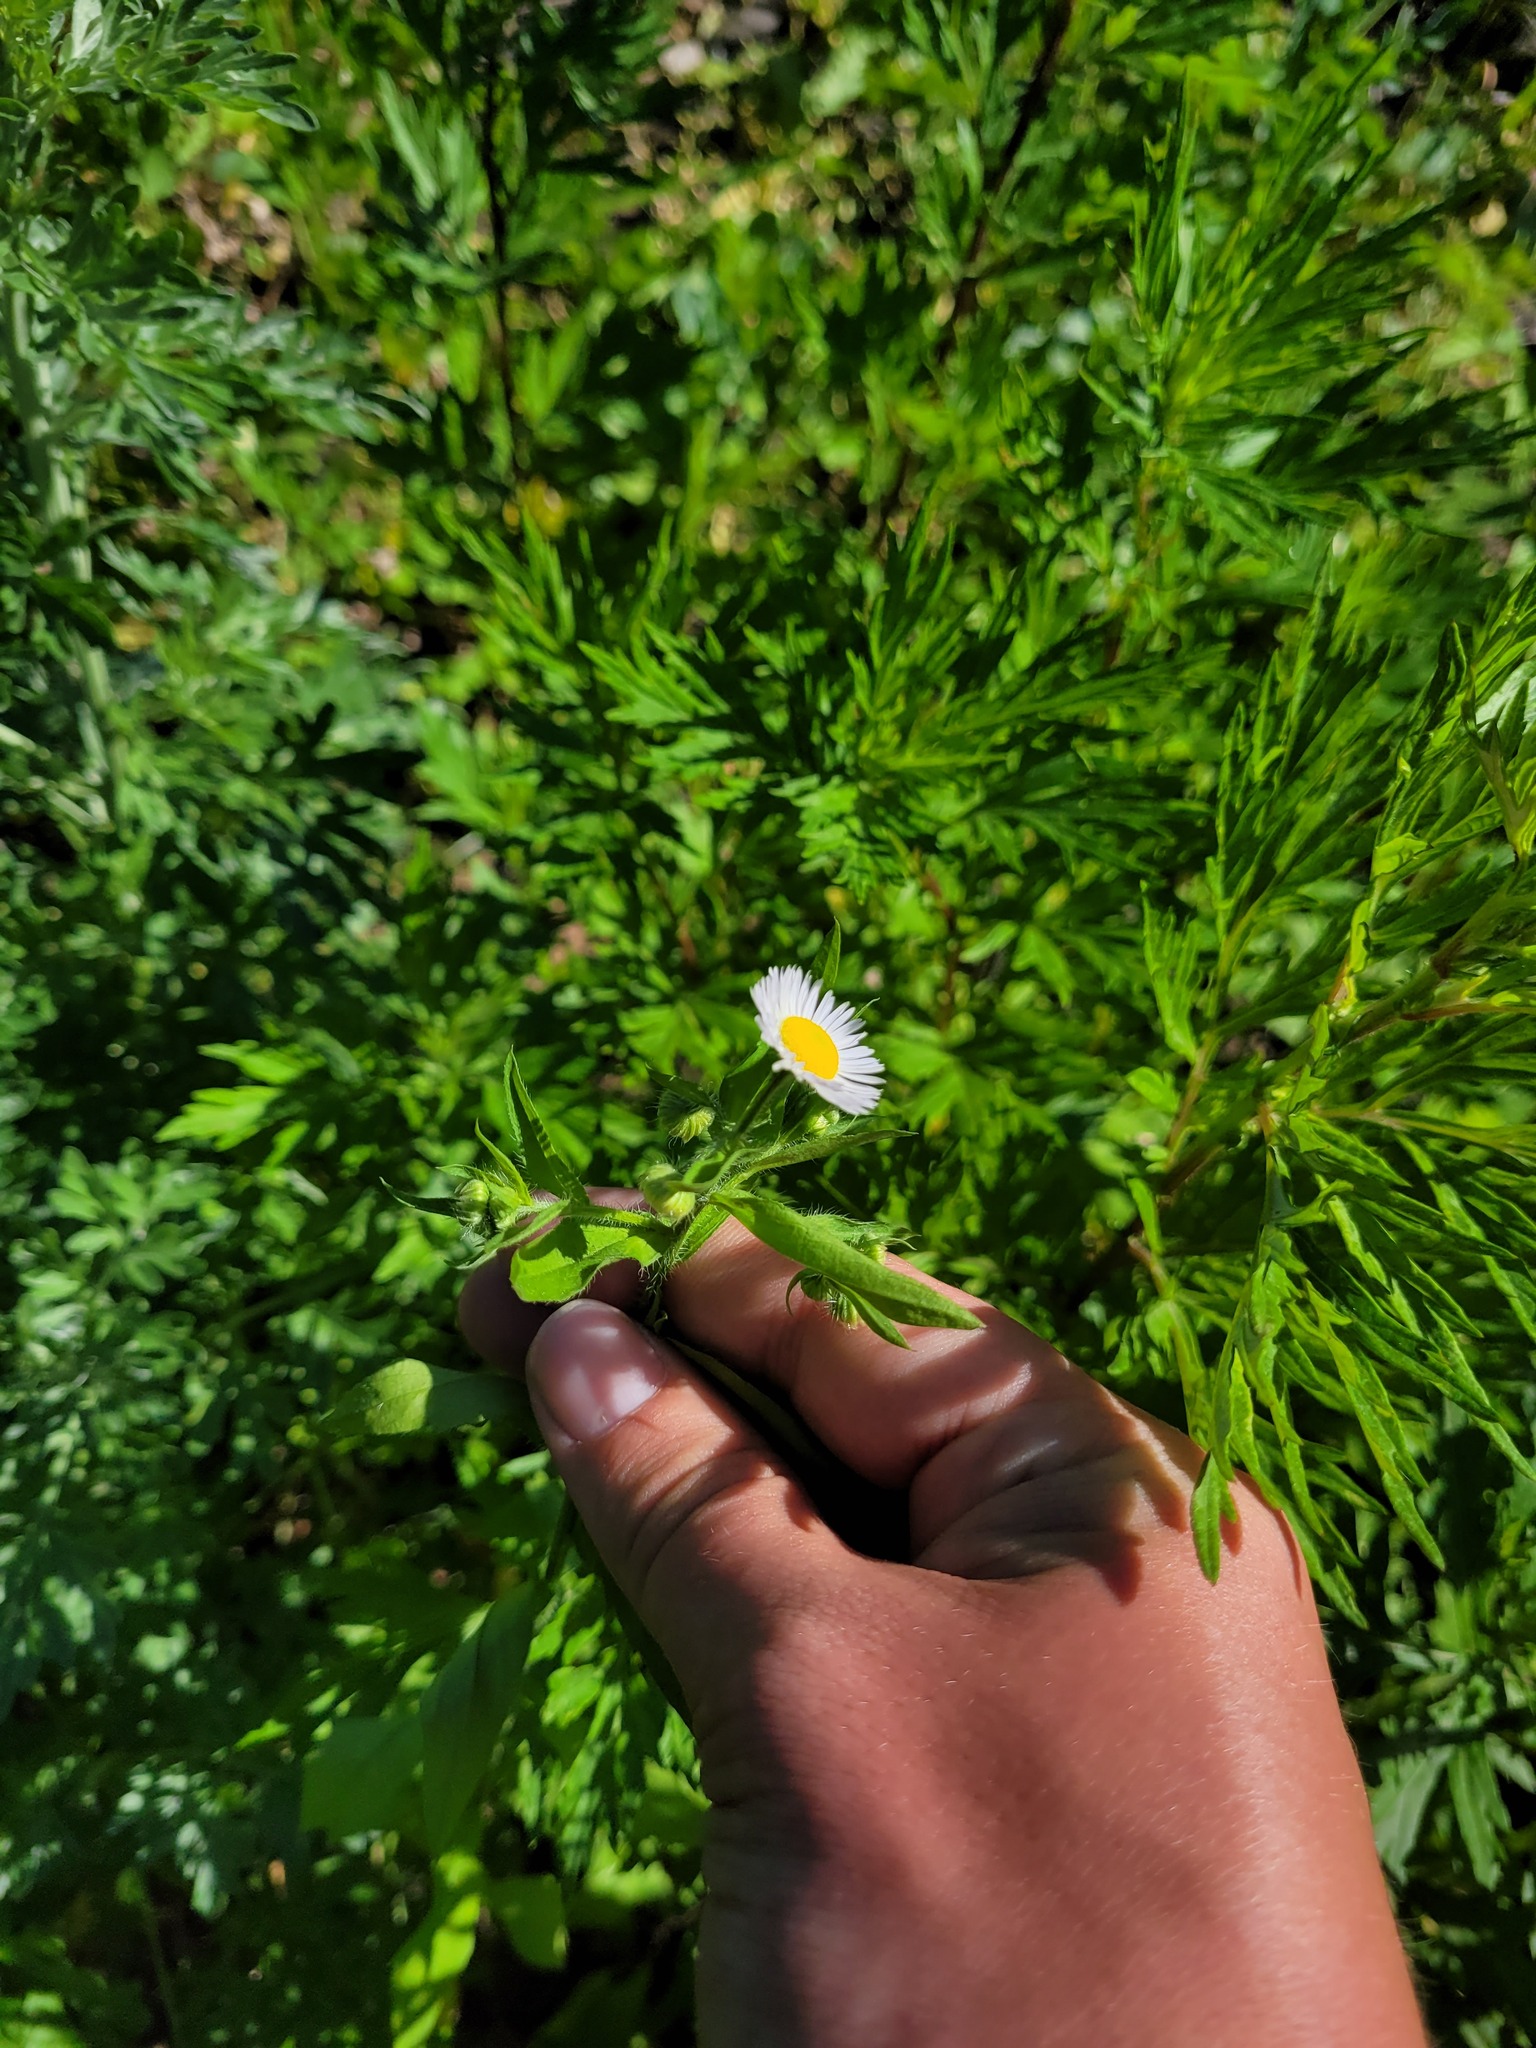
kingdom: Plantae
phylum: Tracheophyta
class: Magnoliopsida
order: Asterales
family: Asteraceae
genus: Erigeron
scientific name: Erigeron annuus
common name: Tall fleabane
